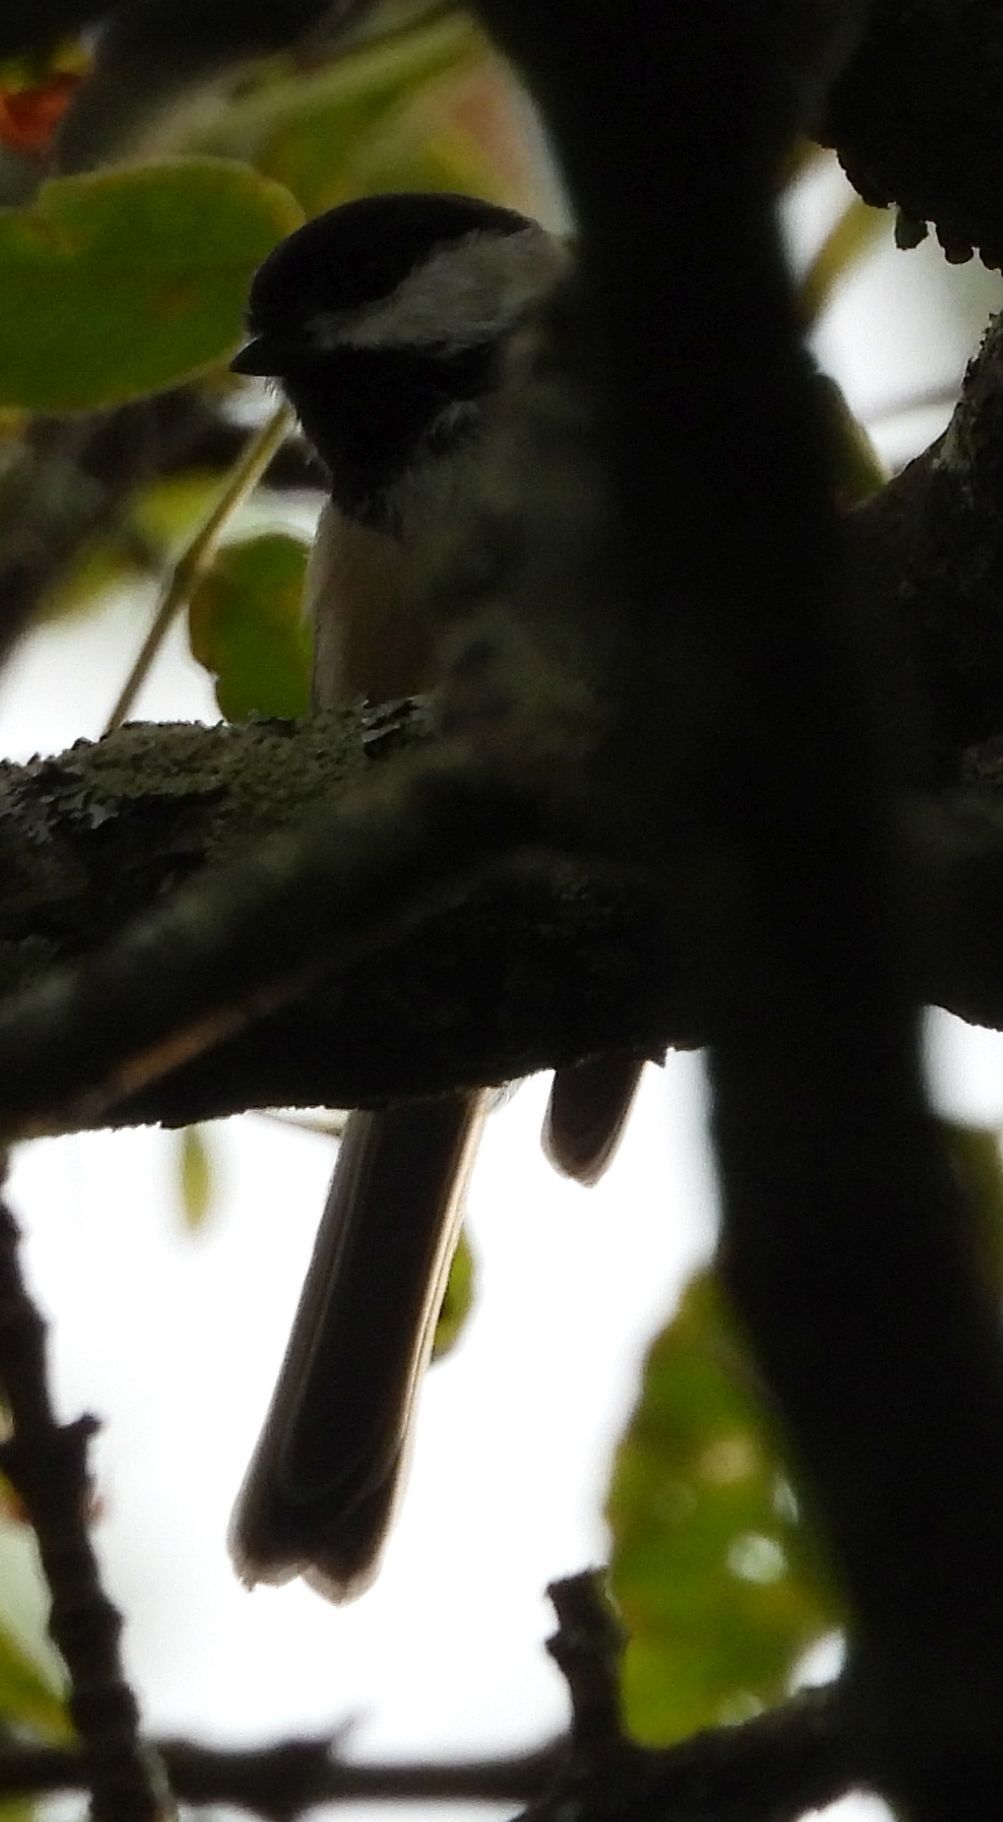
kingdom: Animalia
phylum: Chordata
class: Aves
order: Passeriformes
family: Paridae
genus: Poecile
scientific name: Poecile atricapillus
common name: Black-capped chickadee
